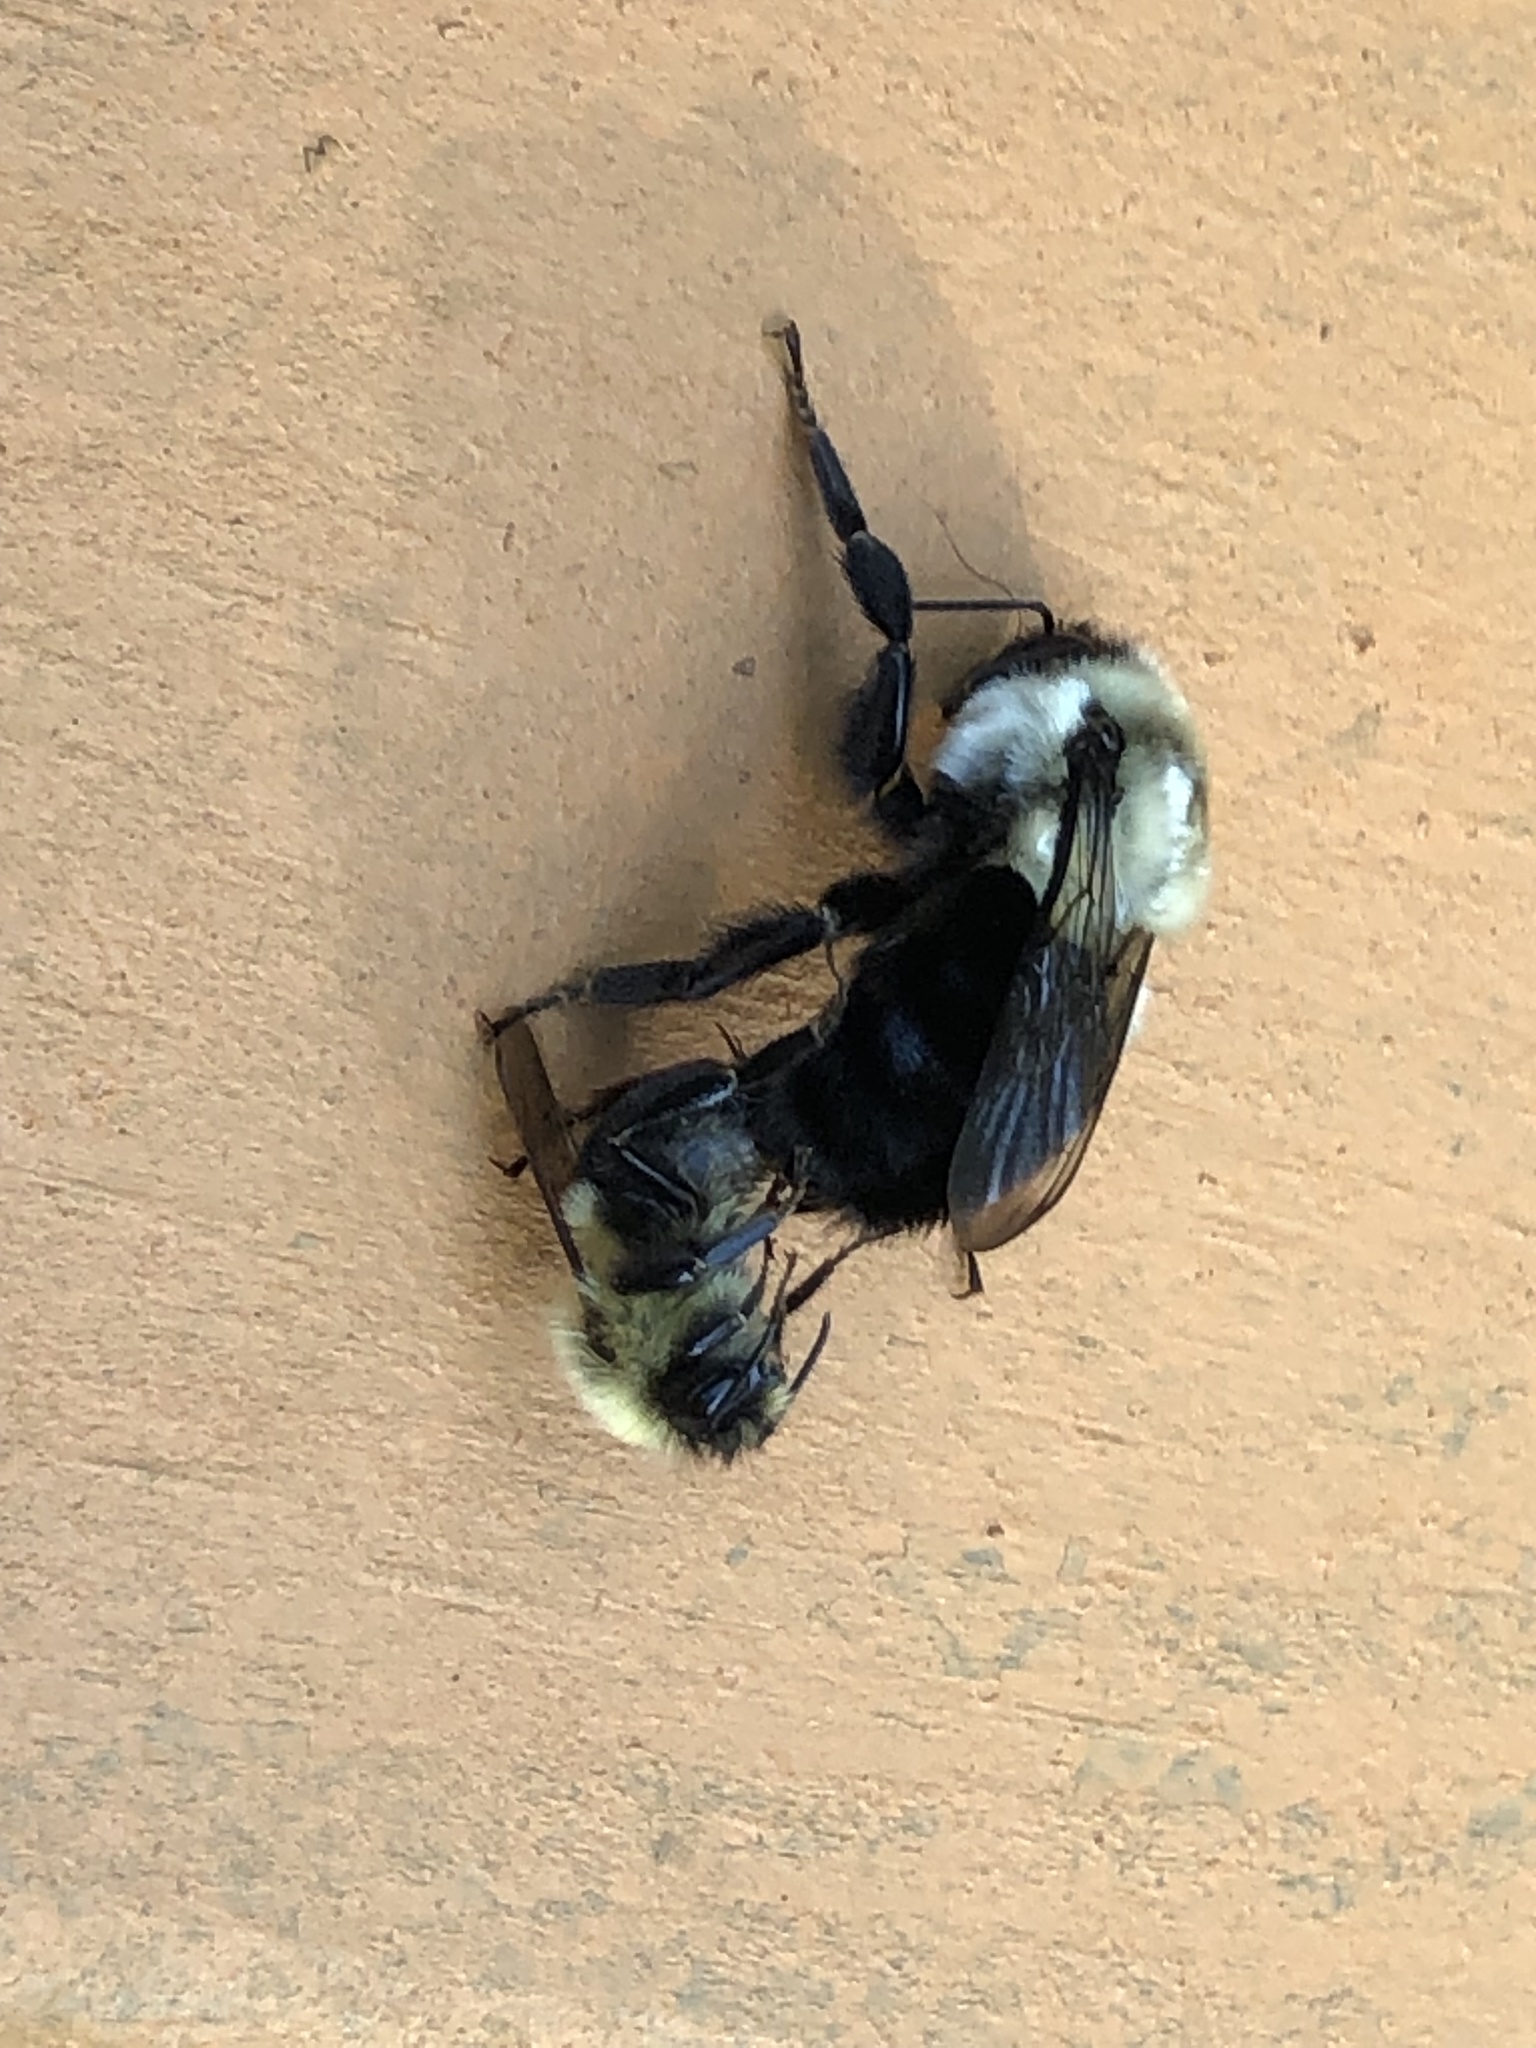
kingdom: Animalia
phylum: Arthropoda
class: Insecta
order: Hymenoptera
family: Apidae
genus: Bombus
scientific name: Bombus impatiens
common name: Common eastern bumble bee
